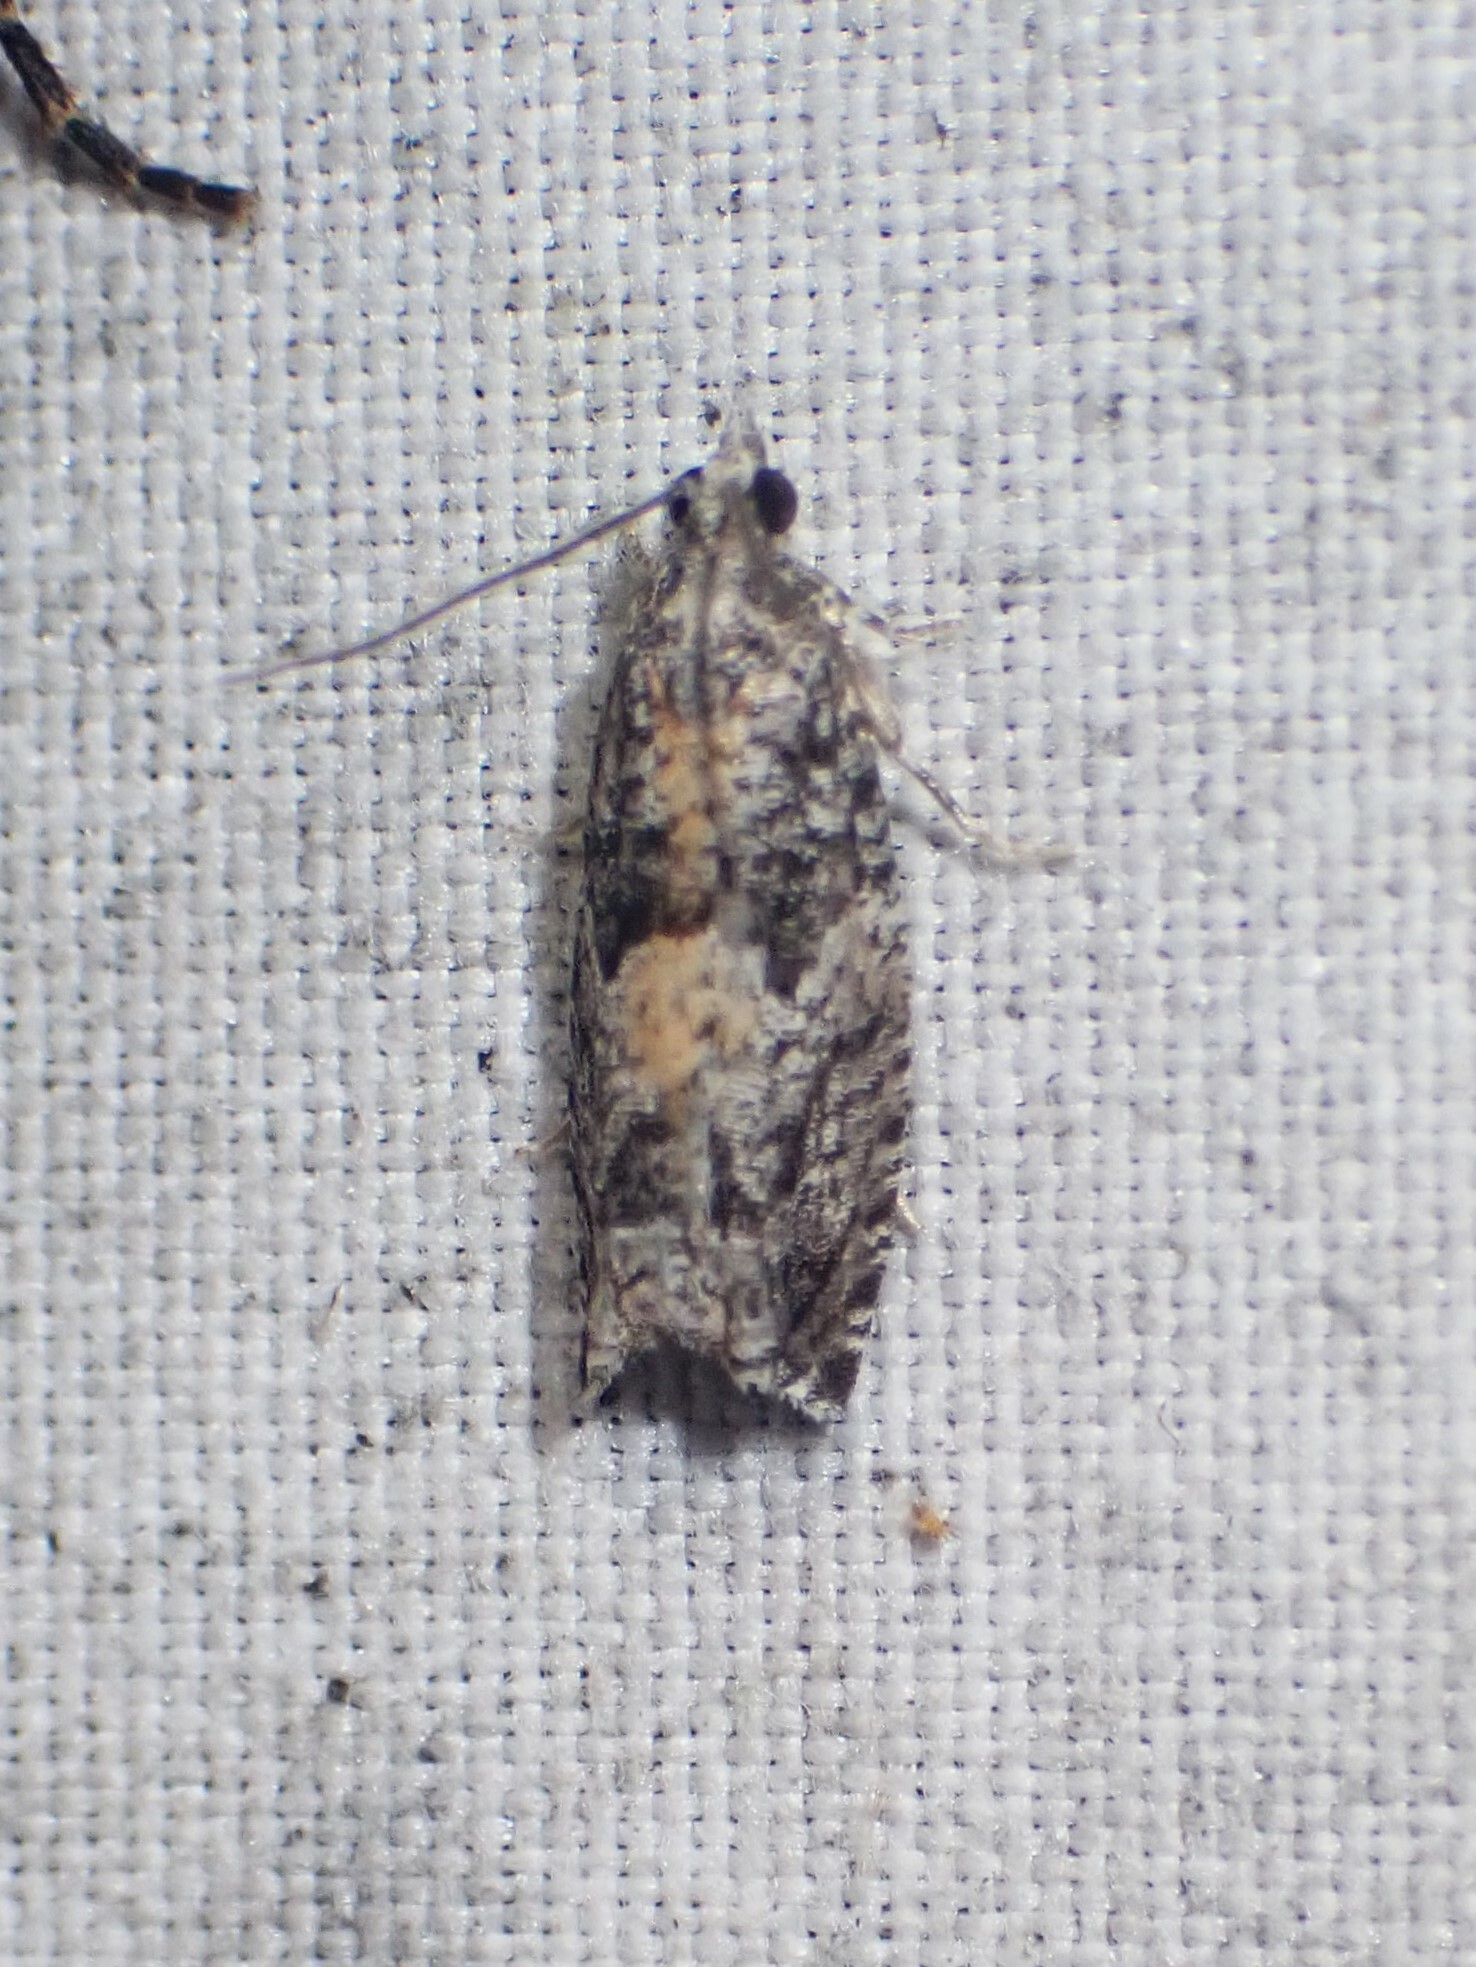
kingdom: Animalia
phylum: Arthropoda
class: Insecta
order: Lepidoptera
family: Tortricidae
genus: Epinotia
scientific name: Epinotia nisella
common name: Grey poplar bell
